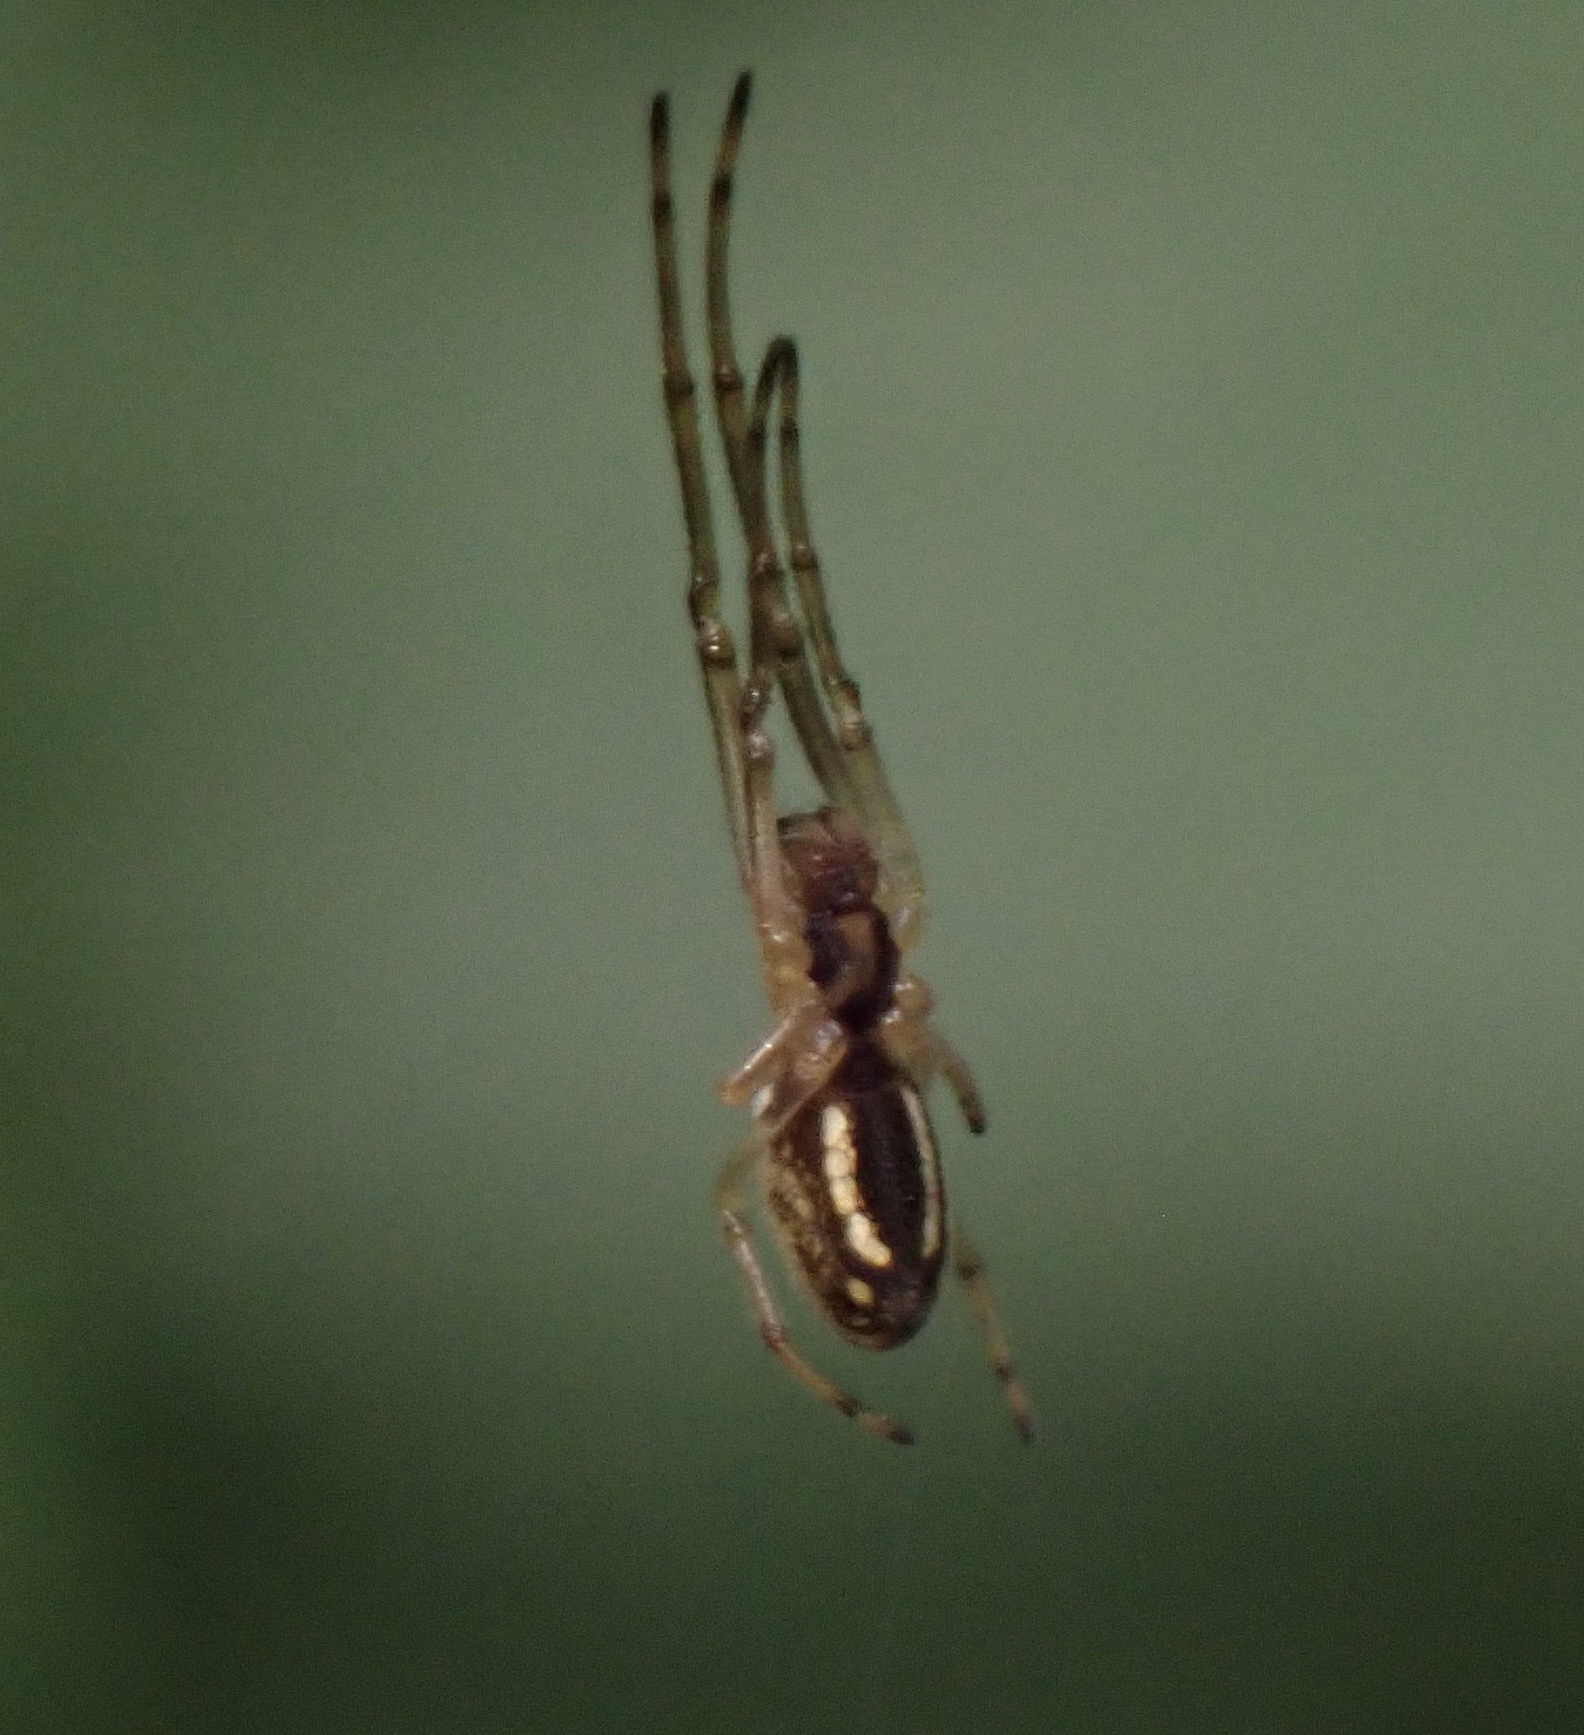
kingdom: Animalia
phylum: Arthropoda
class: Arachnida
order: Araneae
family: Tetragnathidae
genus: Tetragnatha
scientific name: Tetragnatha extensa
